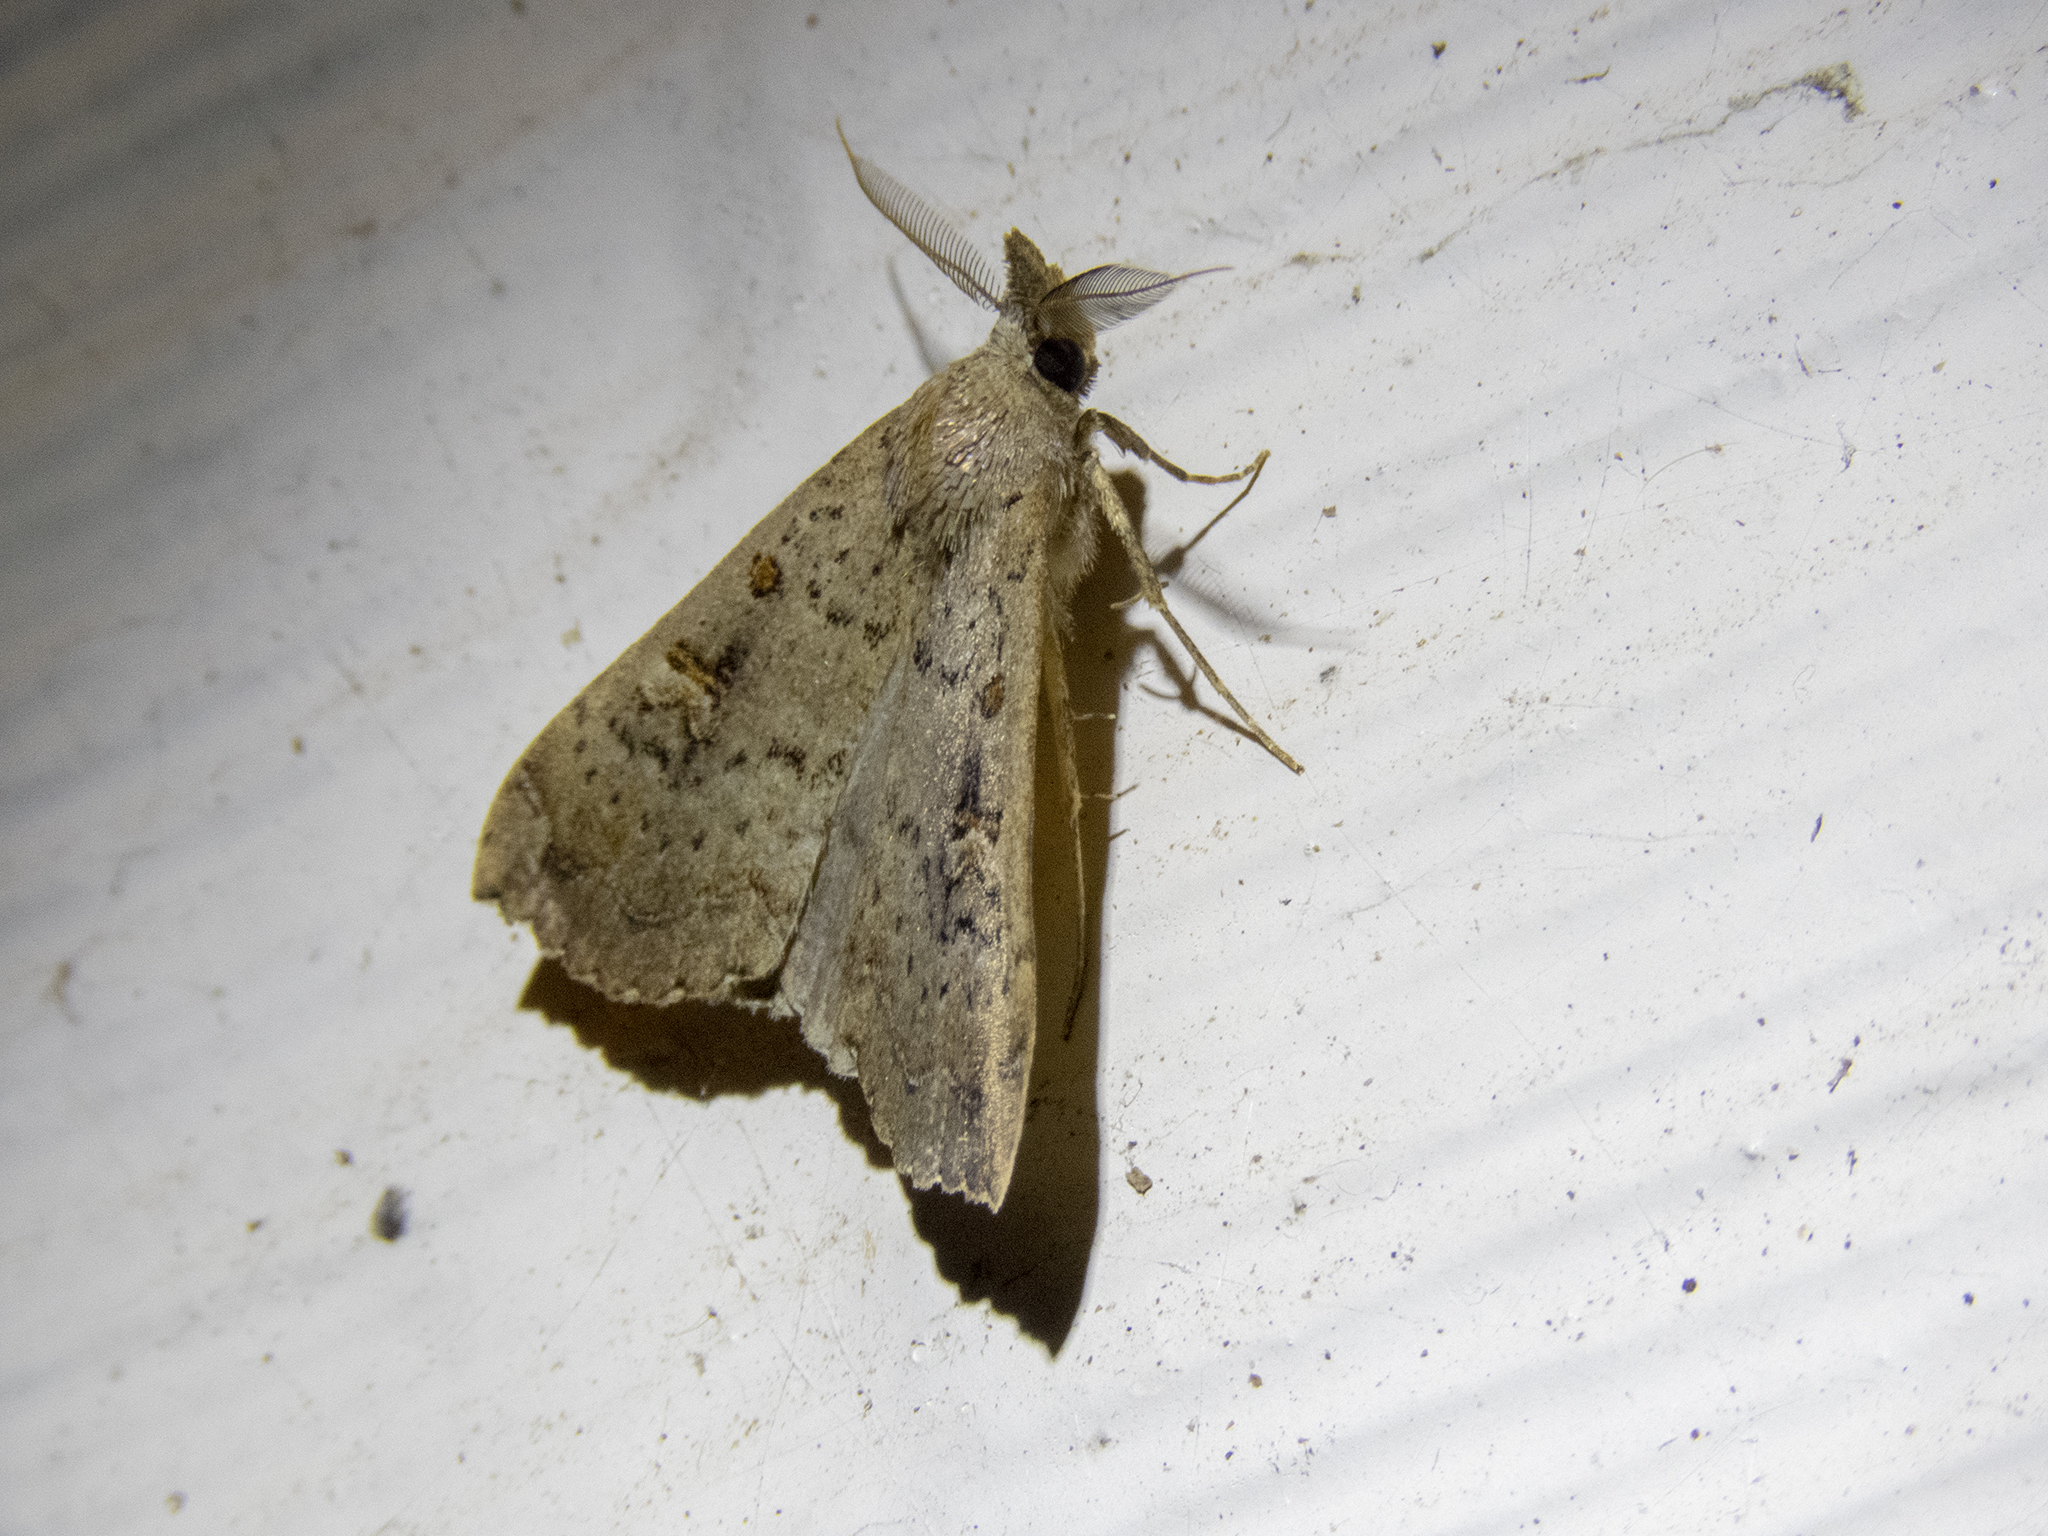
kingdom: Animalia
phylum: Arthropoda
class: Insecta
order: Lepidoptera
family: Erebidae
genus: Rhapsa
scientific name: Rhapsa scotosialis
